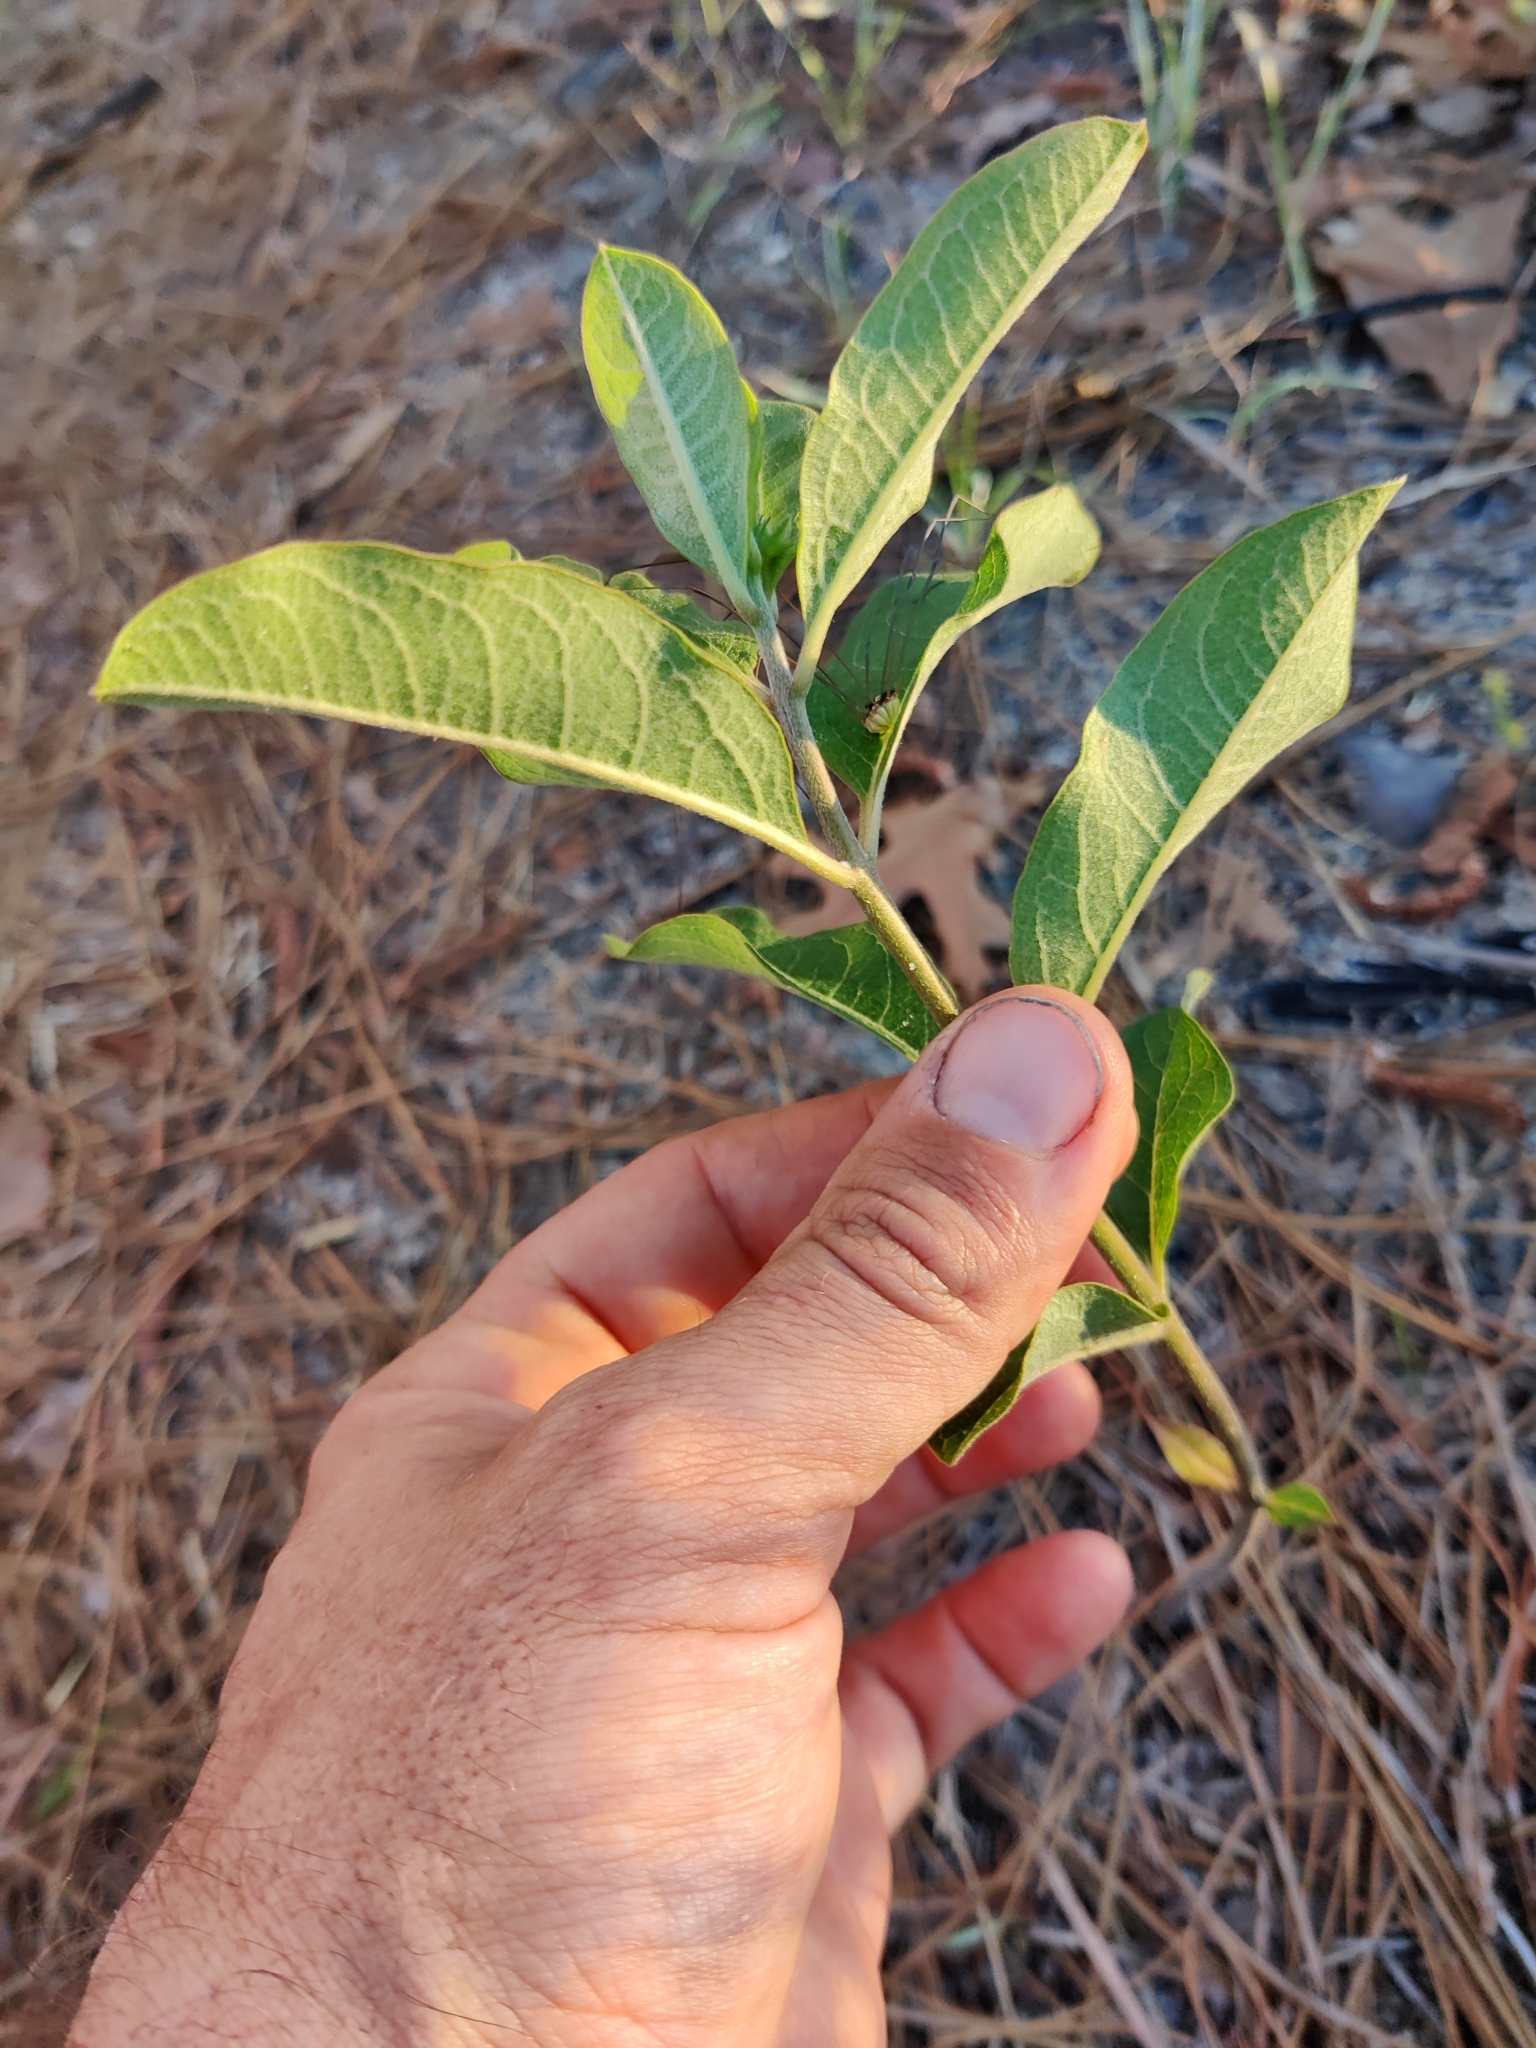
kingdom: Plantae
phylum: Tracheophyta
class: Magnoliopsida
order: Gentianales
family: Apocynaceae
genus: Asclepias
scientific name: Asclepias tomentosa
